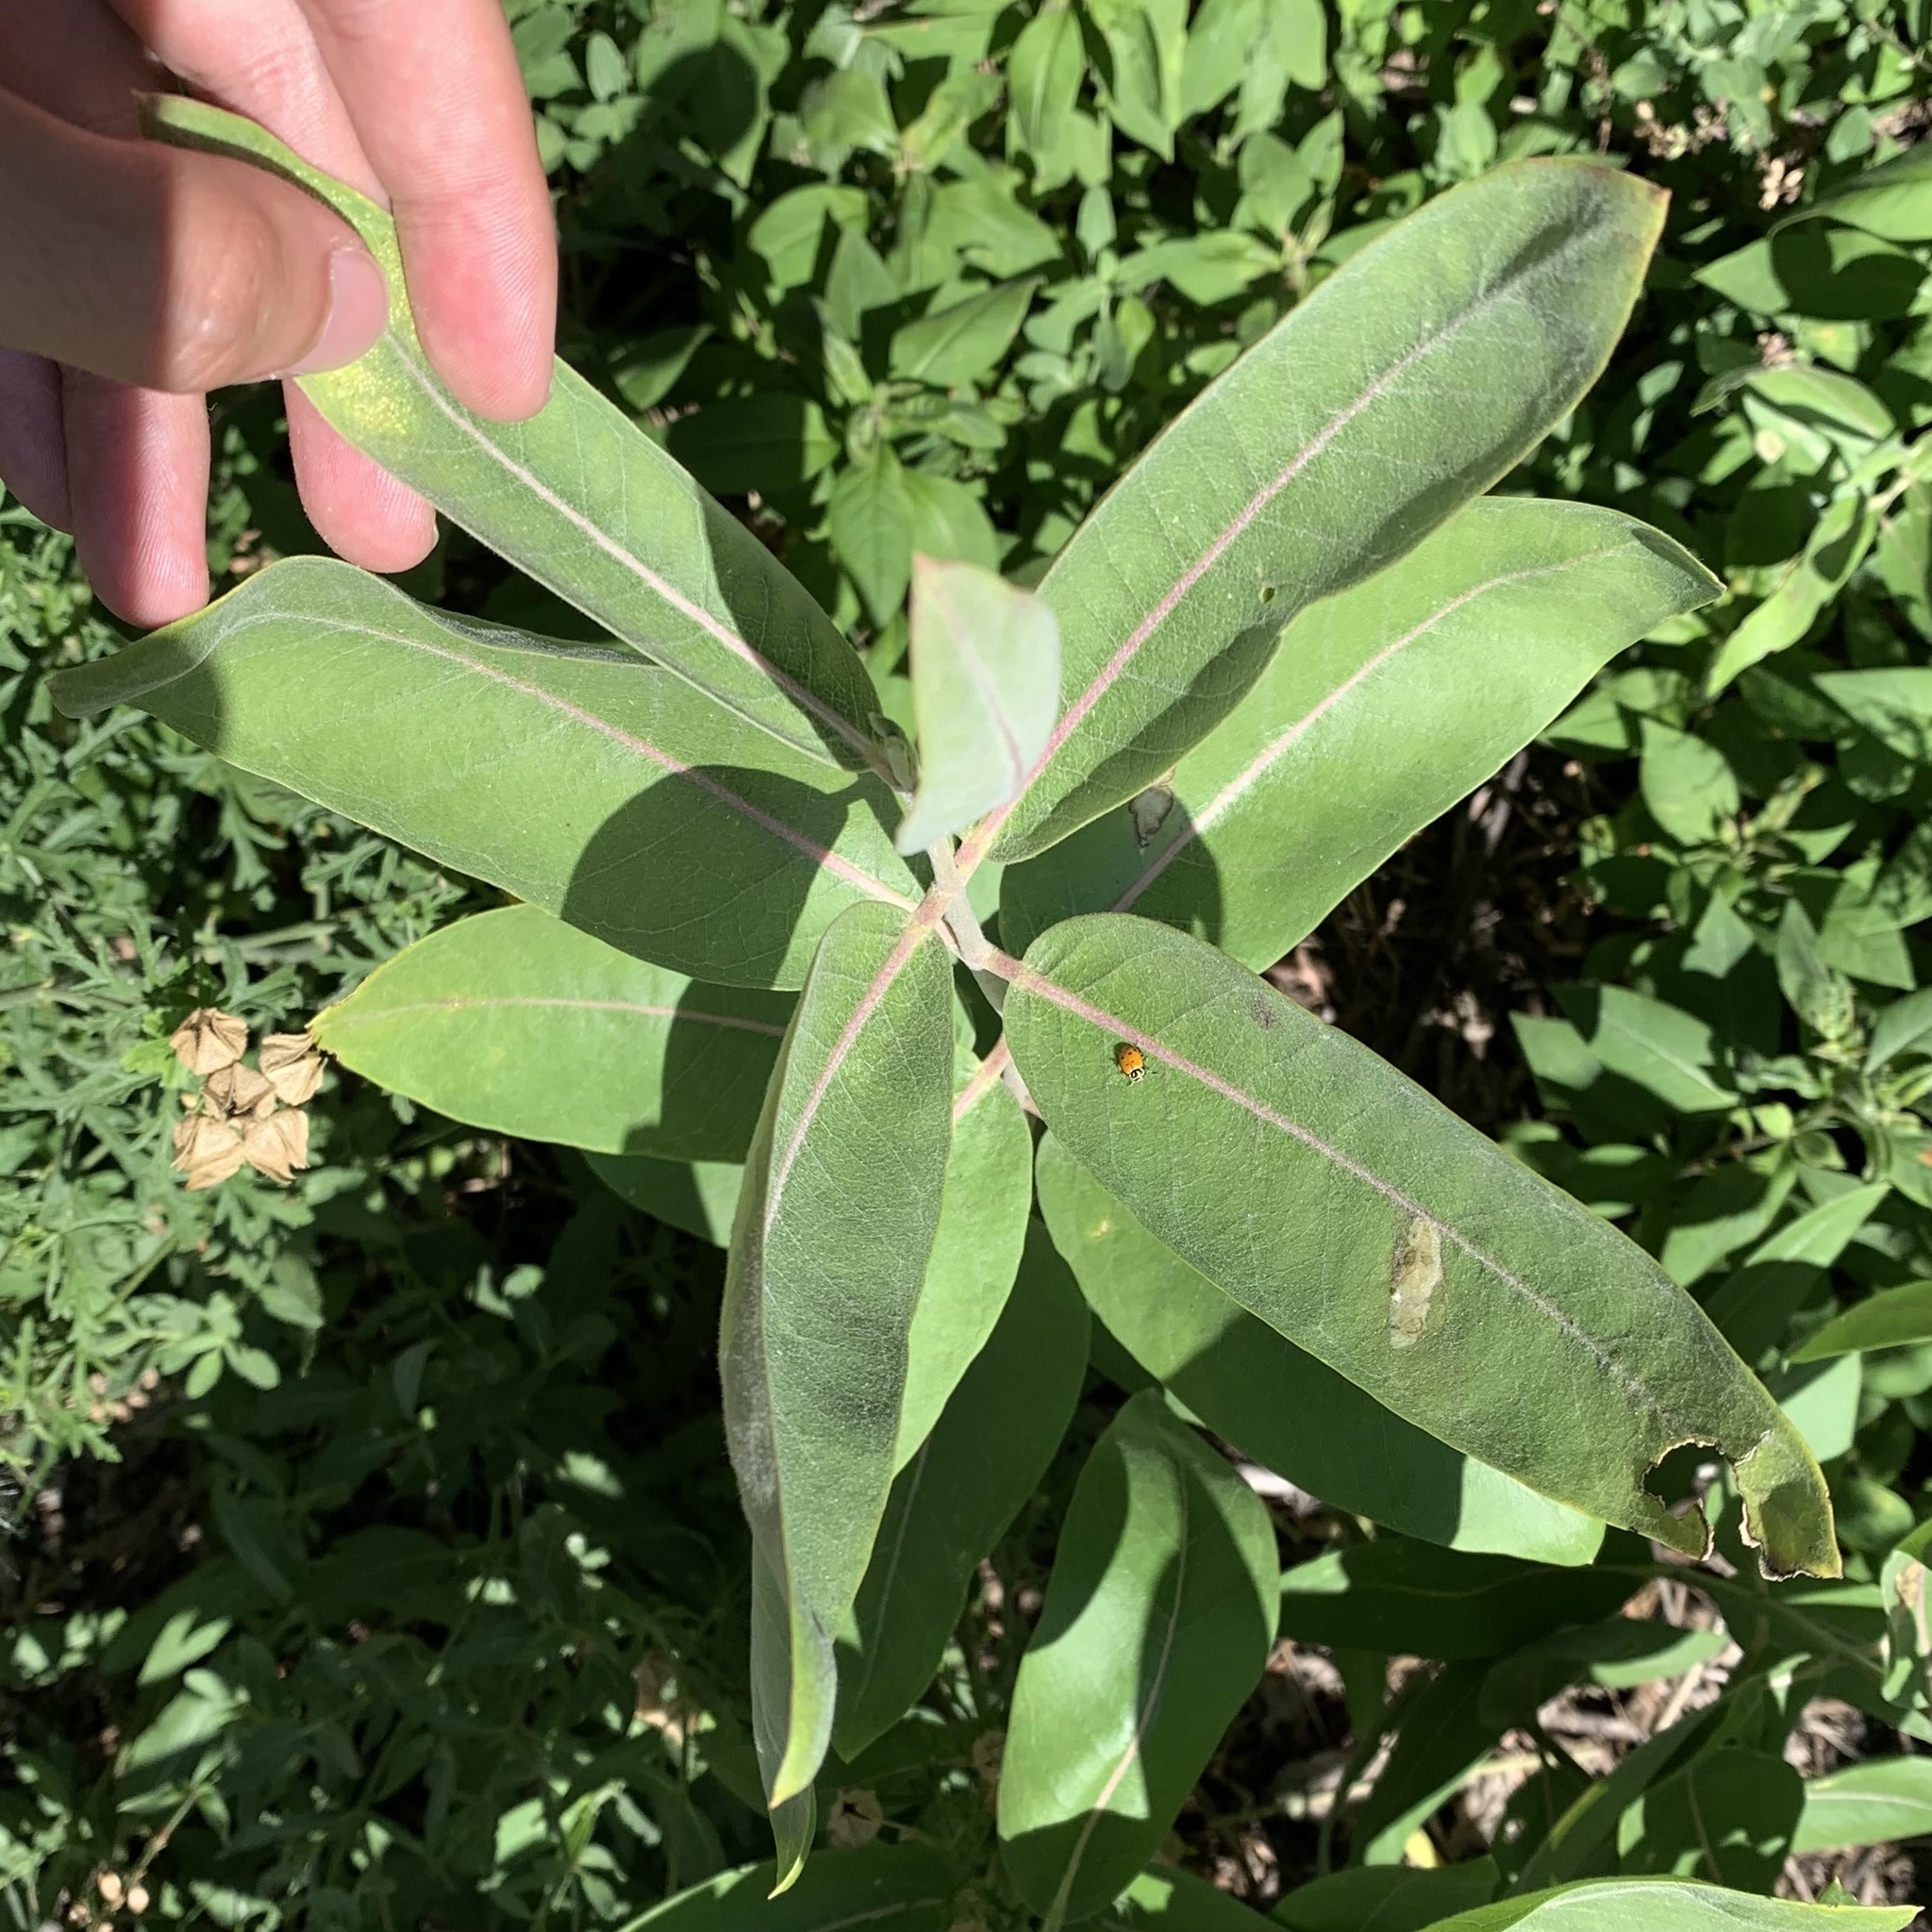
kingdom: Animalia
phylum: Arthropoda
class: Insecta
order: Diptera
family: Agromyzidae
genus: Liriomyza
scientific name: Liriomyza asclepiadis
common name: Milkweed leaf-miner fly
